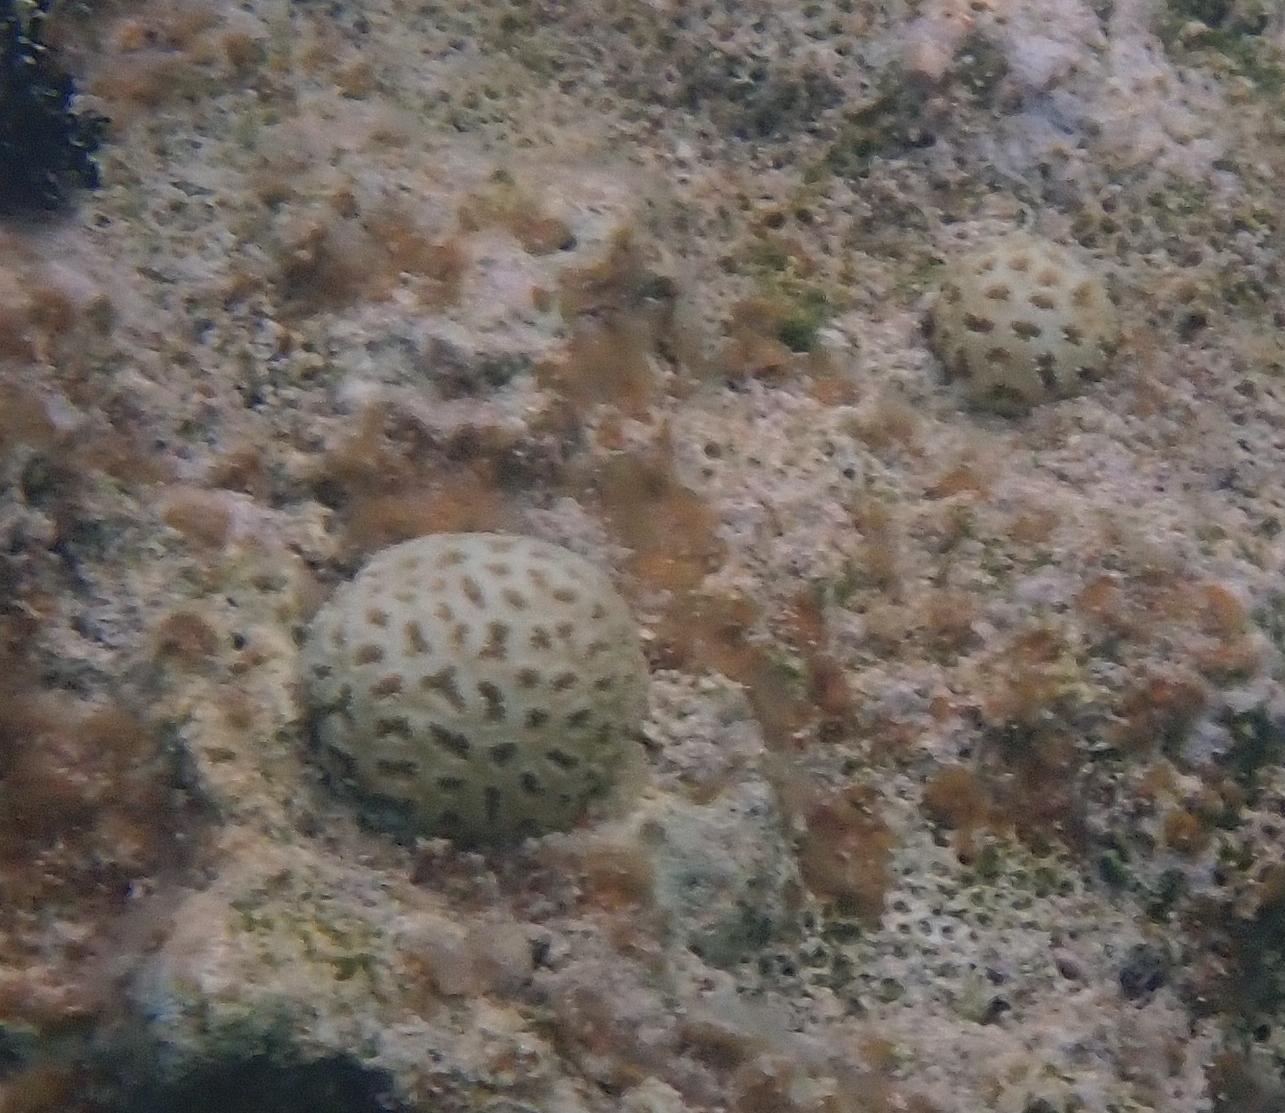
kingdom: Animalia
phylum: Cnidaria
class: Anthozoa
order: Scleractinia
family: Faviidae
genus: Favia
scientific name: Favia fragum
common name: Golfball coral
